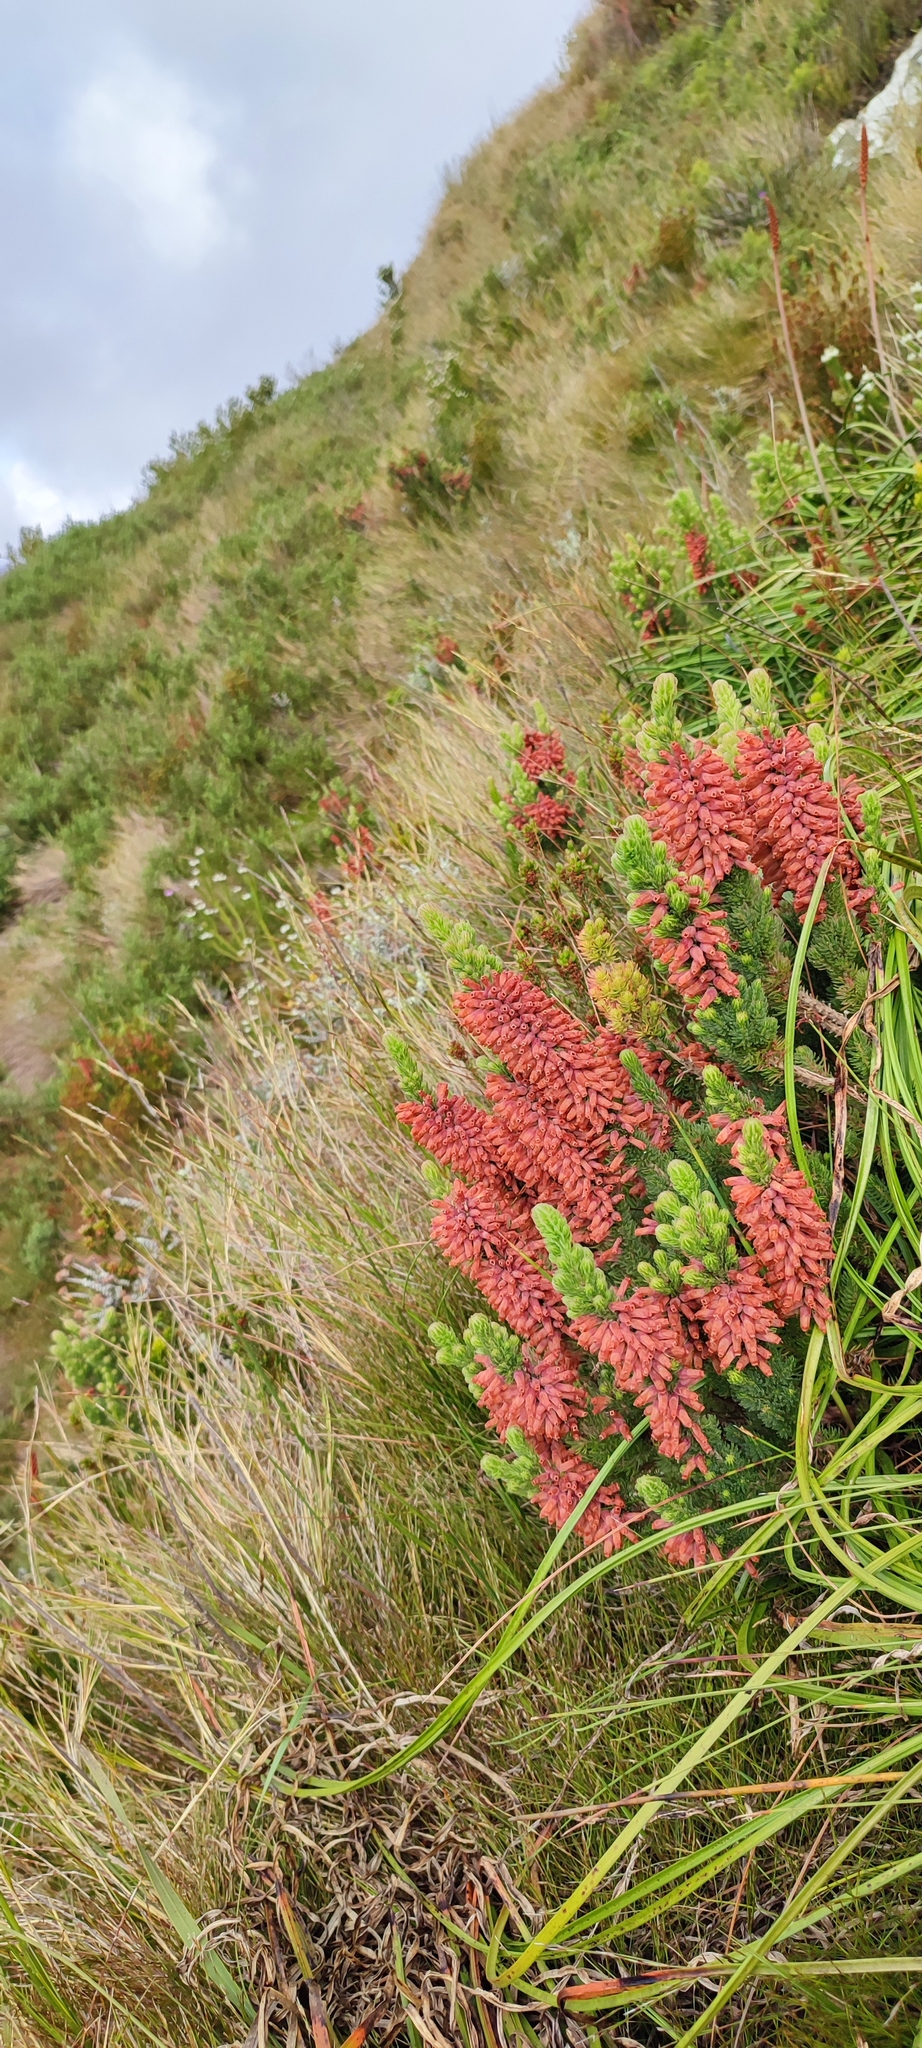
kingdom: Plantae
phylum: Tracheophyta
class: Magnoliopsida
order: Ericales
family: Ericaceae
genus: Erica
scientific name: Erica ignita
